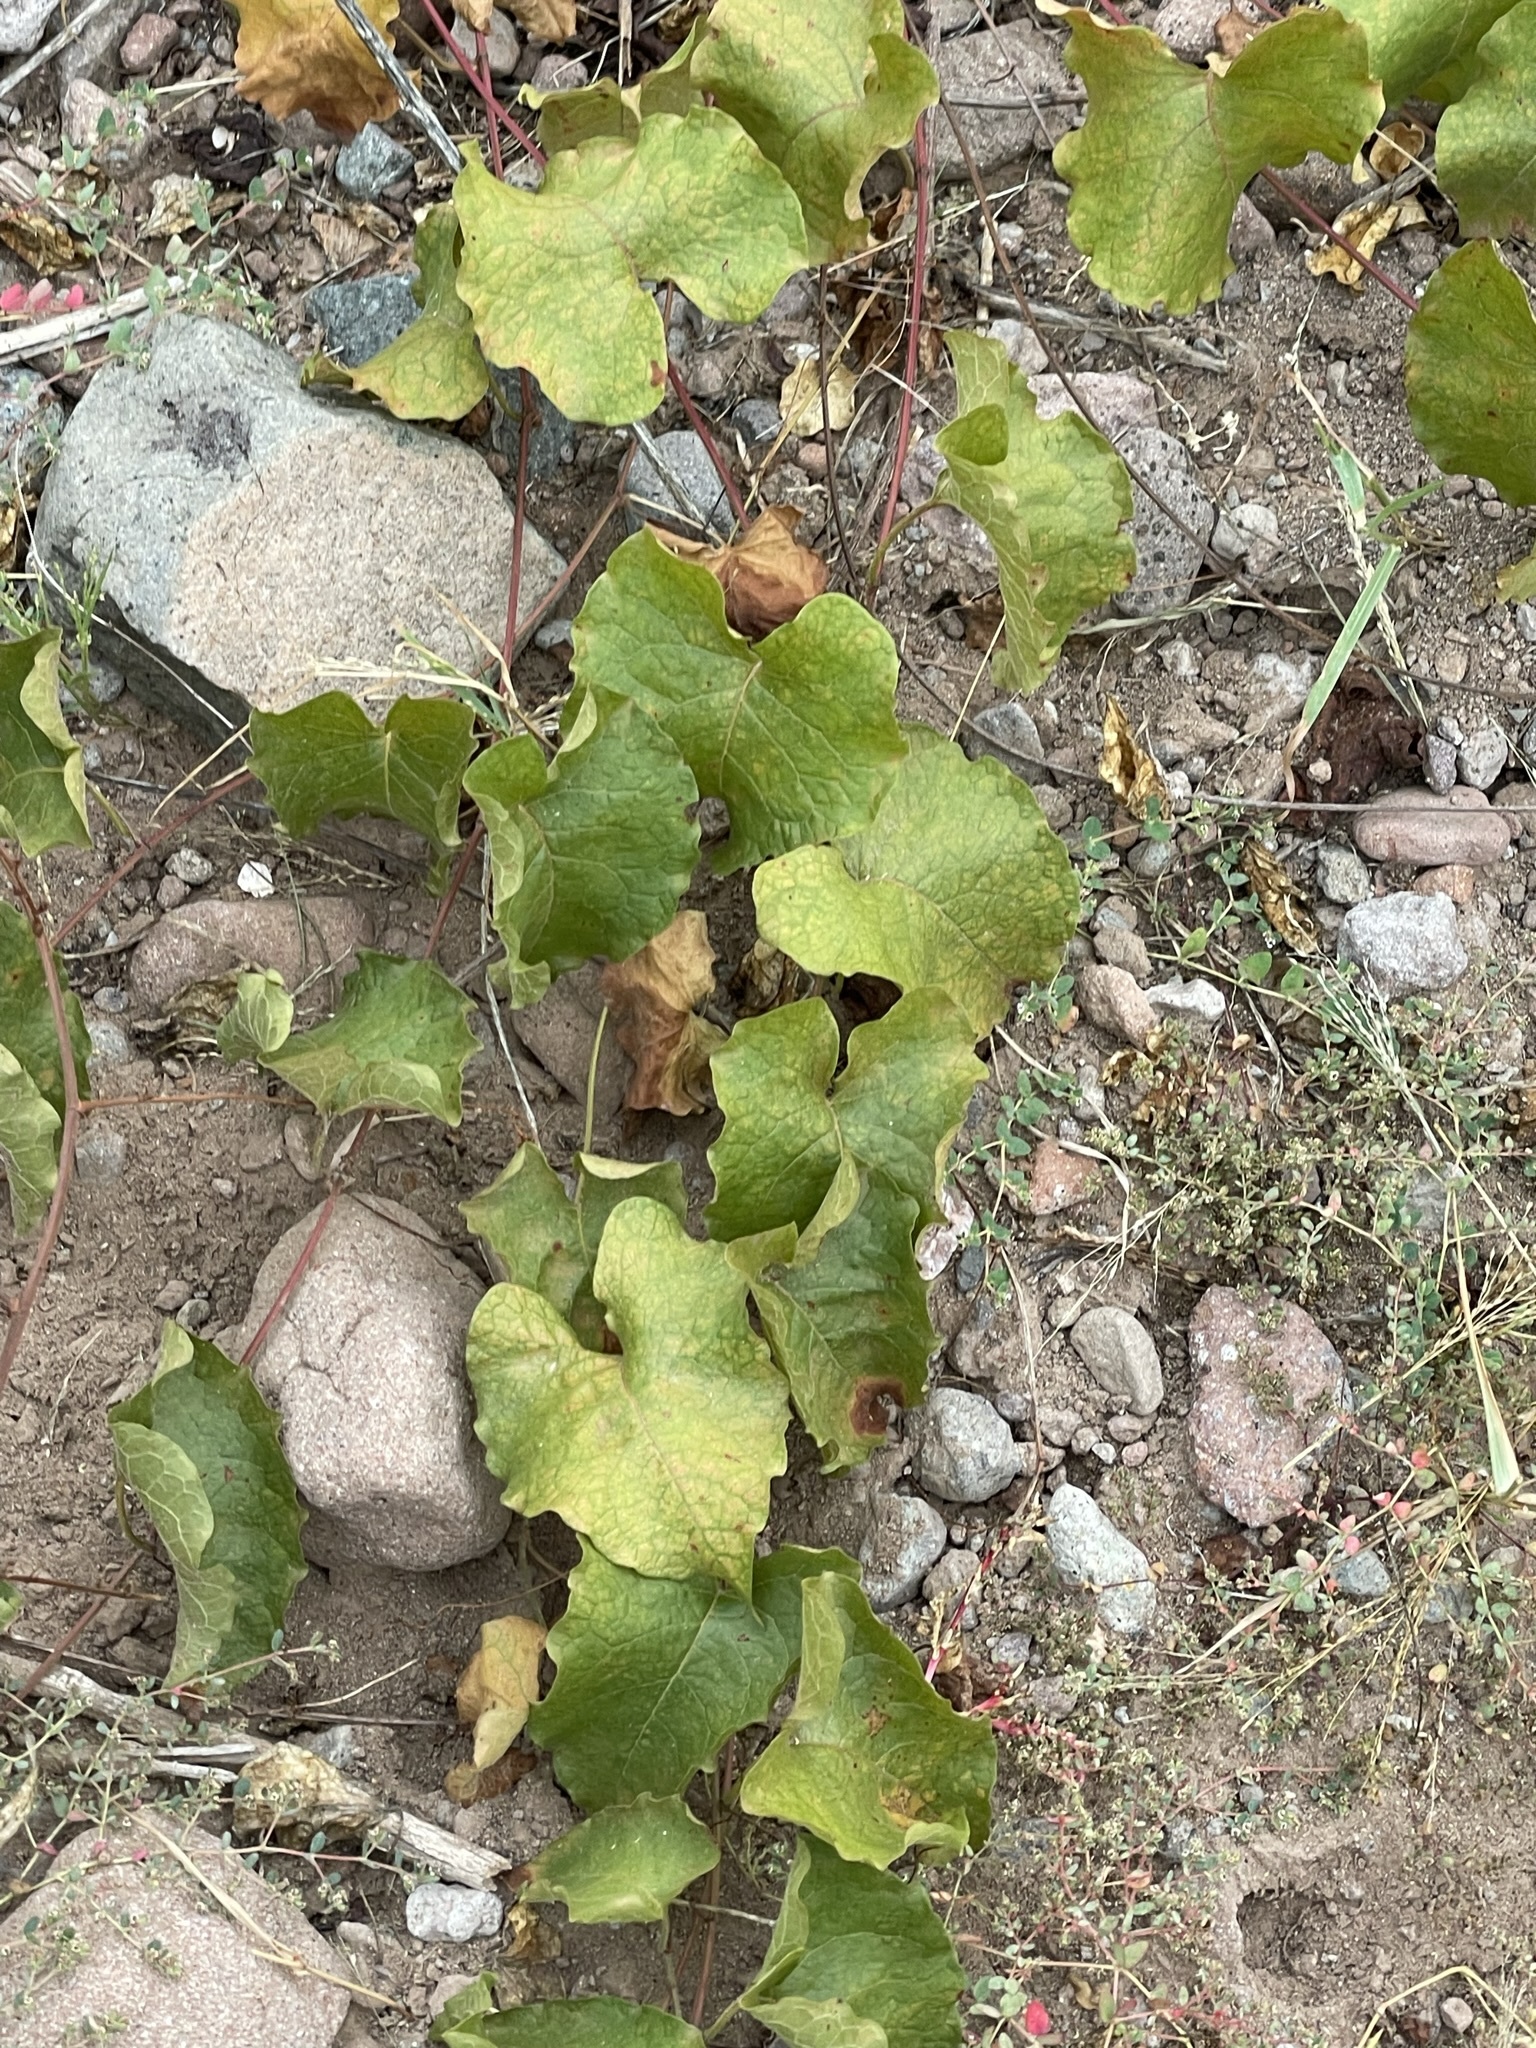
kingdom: Plantae
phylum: Tracheophyta
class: Magnoliopsida
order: Caryophyllales
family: Polygonaceae
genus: Antigonon
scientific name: Antigonon leptopus
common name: Coral vine
